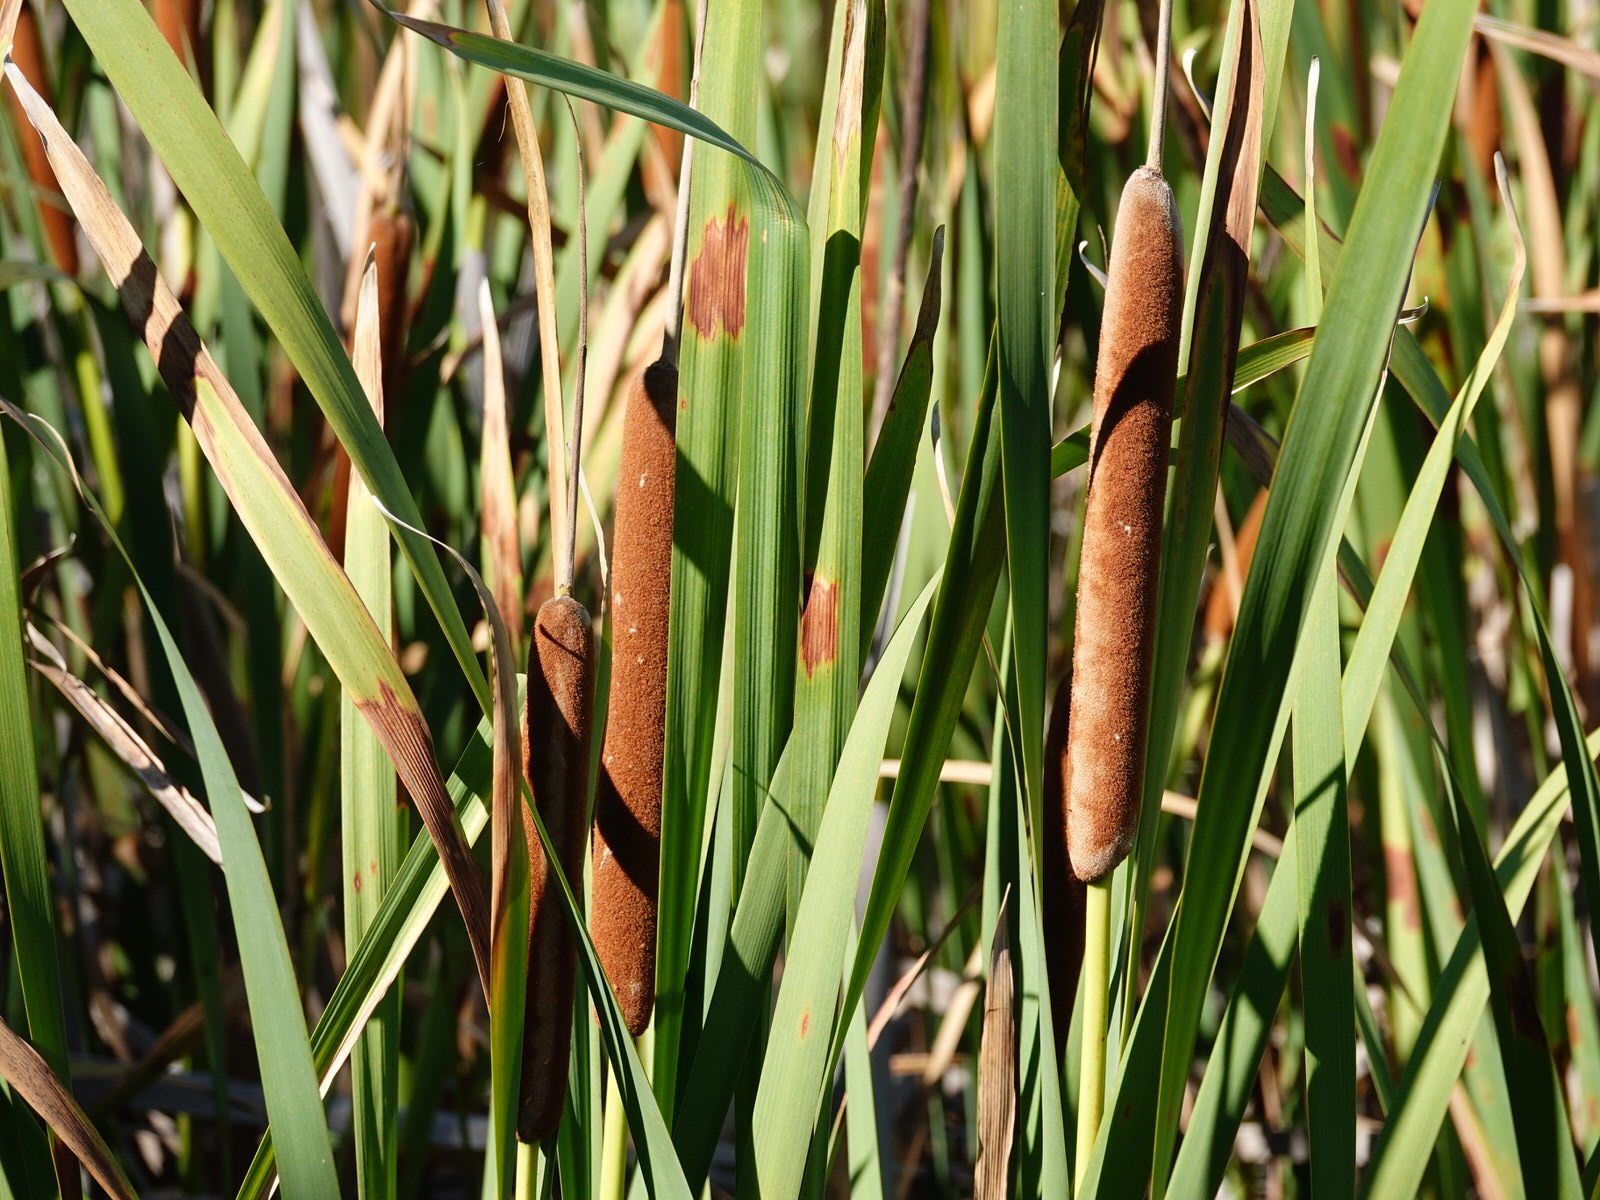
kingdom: Plantae
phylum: Tracheophyta
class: Liliopsida
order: Poales
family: Typhaceae
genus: Typha
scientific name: Typha orientalis
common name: Bullrush
